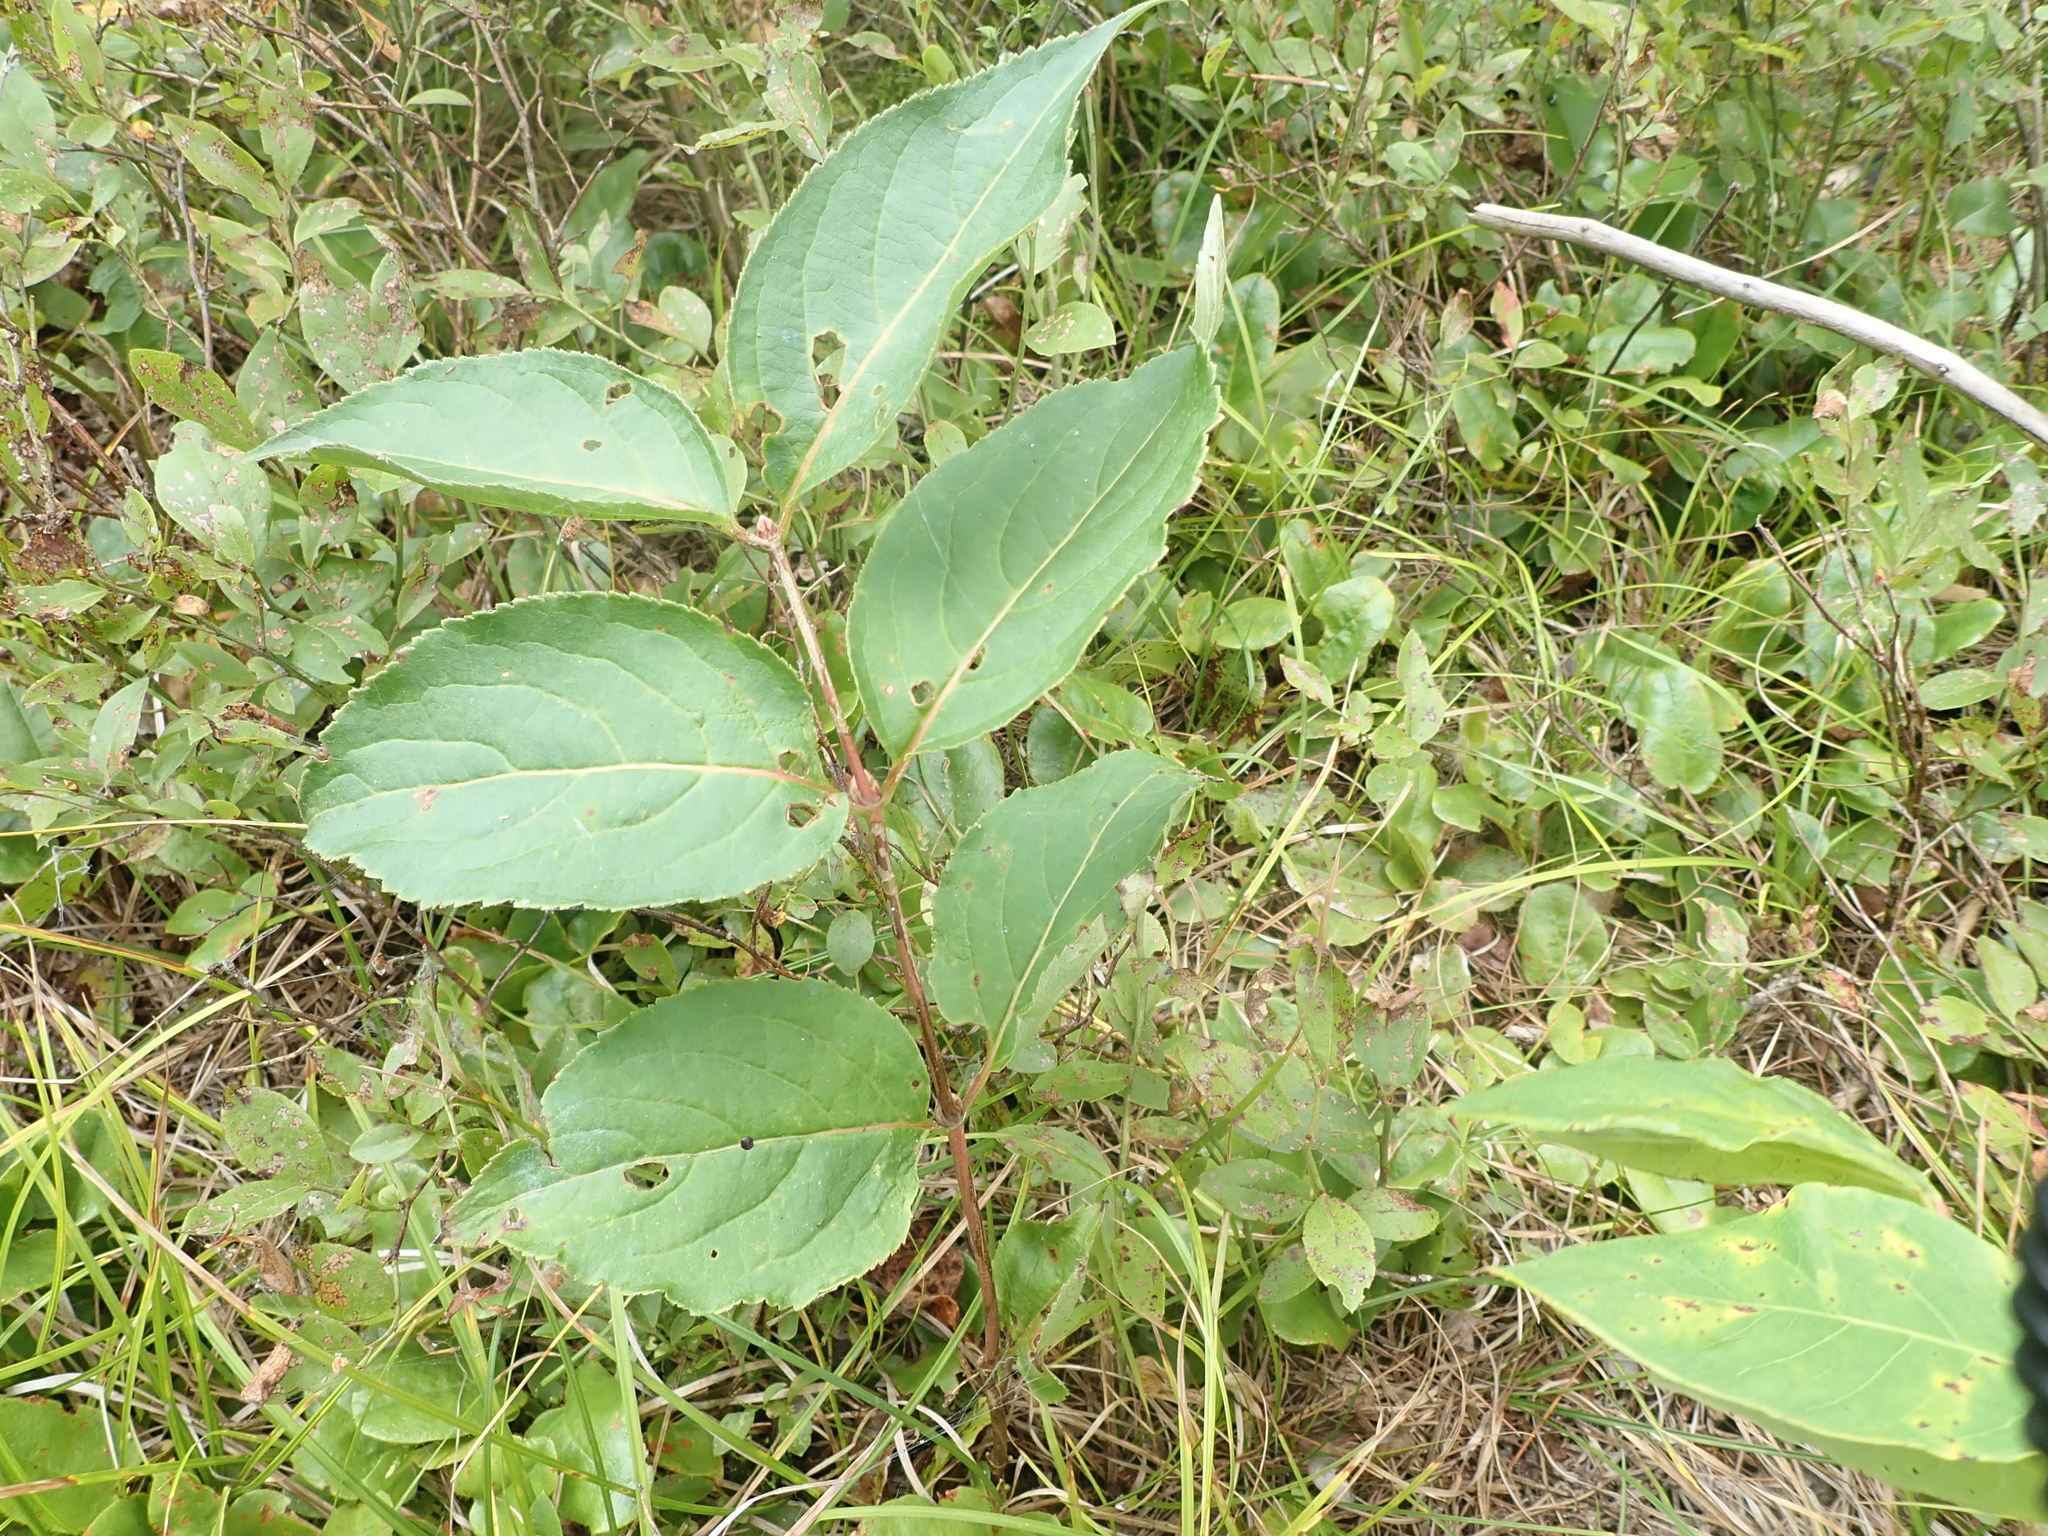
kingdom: Plantae
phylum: Tracheophyta
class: Magnoliopsida
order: Dipsacales
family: Caprifoliaceae
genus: Diervilla
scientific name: Diervilla lonicera
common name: Bush-honeysuckle
